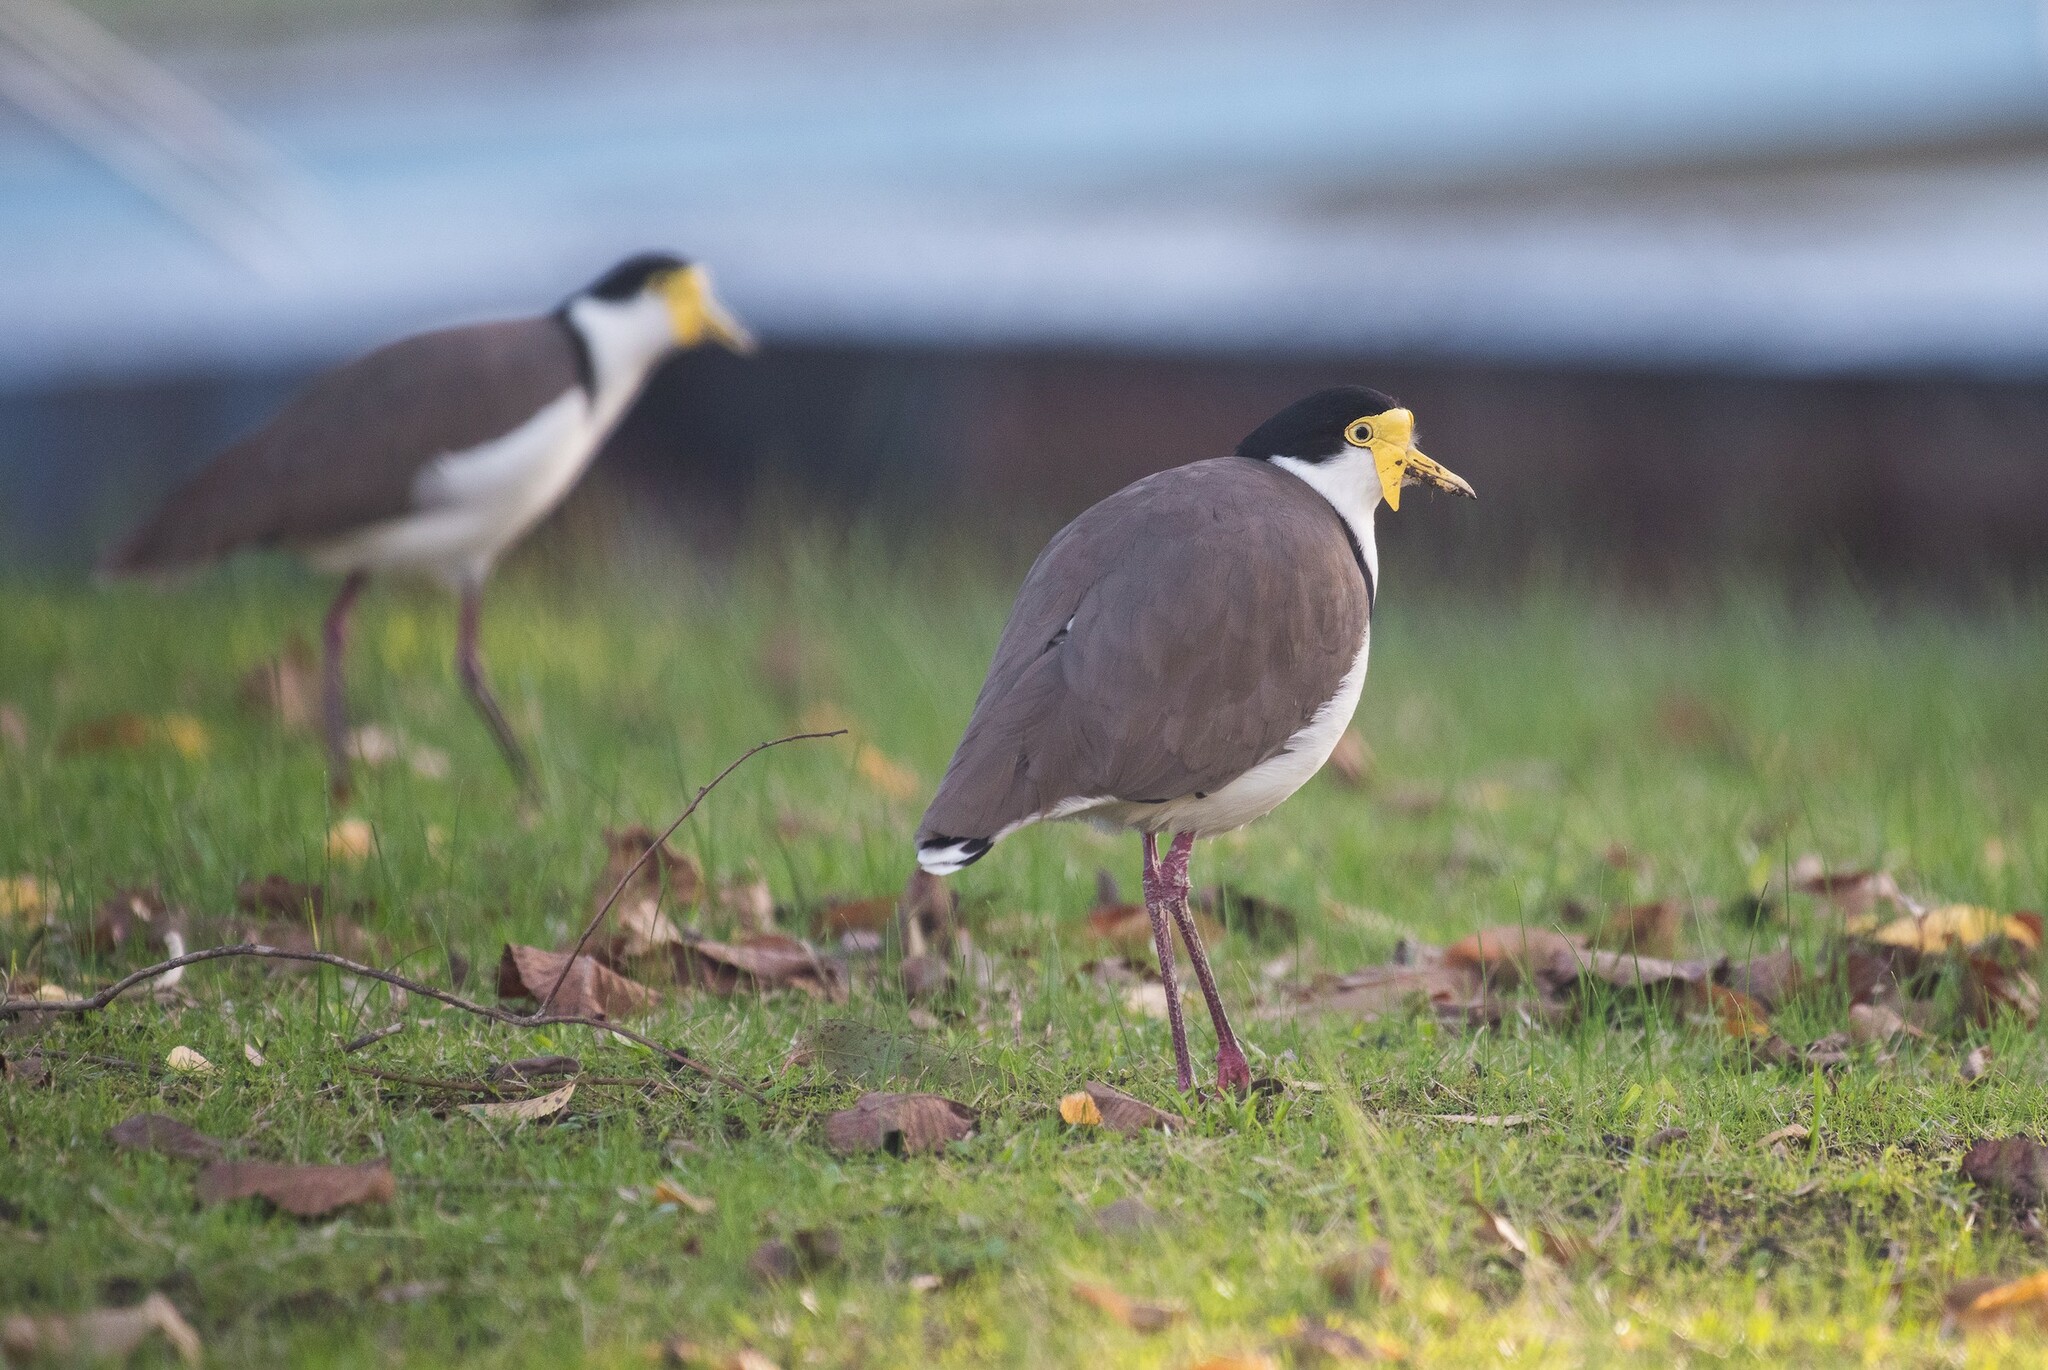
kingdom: Animalia
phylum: Chordata
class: Aves
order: Charadriiformes
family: Charadriidae
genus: Vanellus
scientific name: Vanellus miles
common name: Masked lapwing
